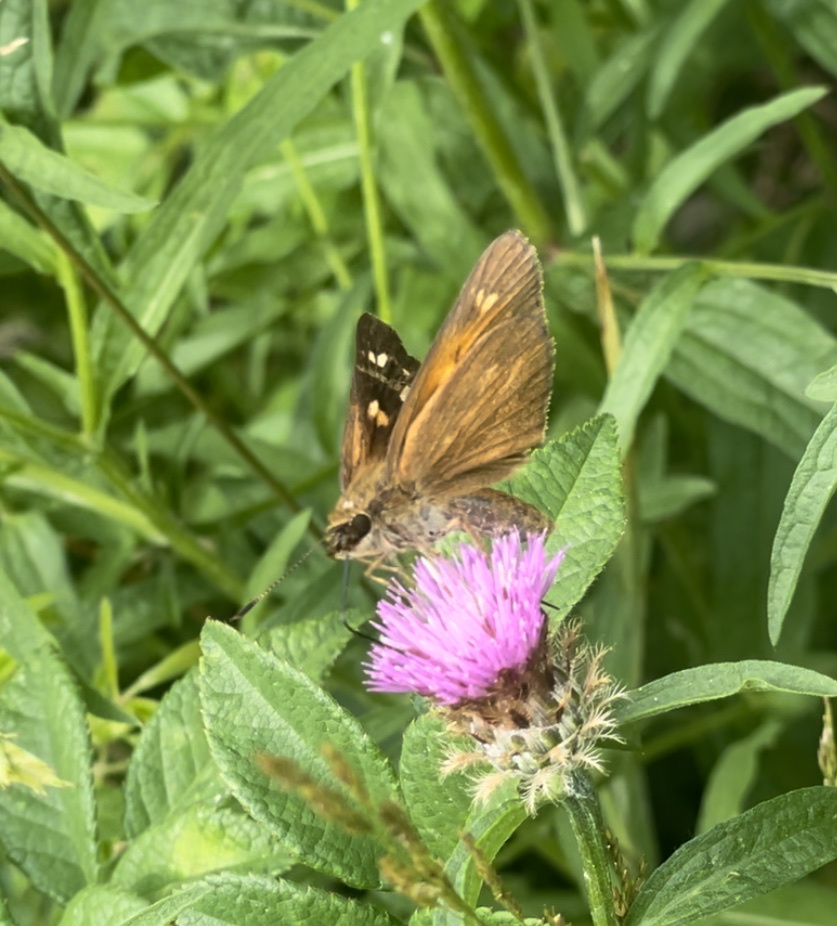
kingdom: Animalia
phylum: Arthropoda
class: Insecta
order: Lepidoptera
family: Hesperiidae
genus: Poanes
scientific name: Poanes viator
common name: Broad-winged skipper
